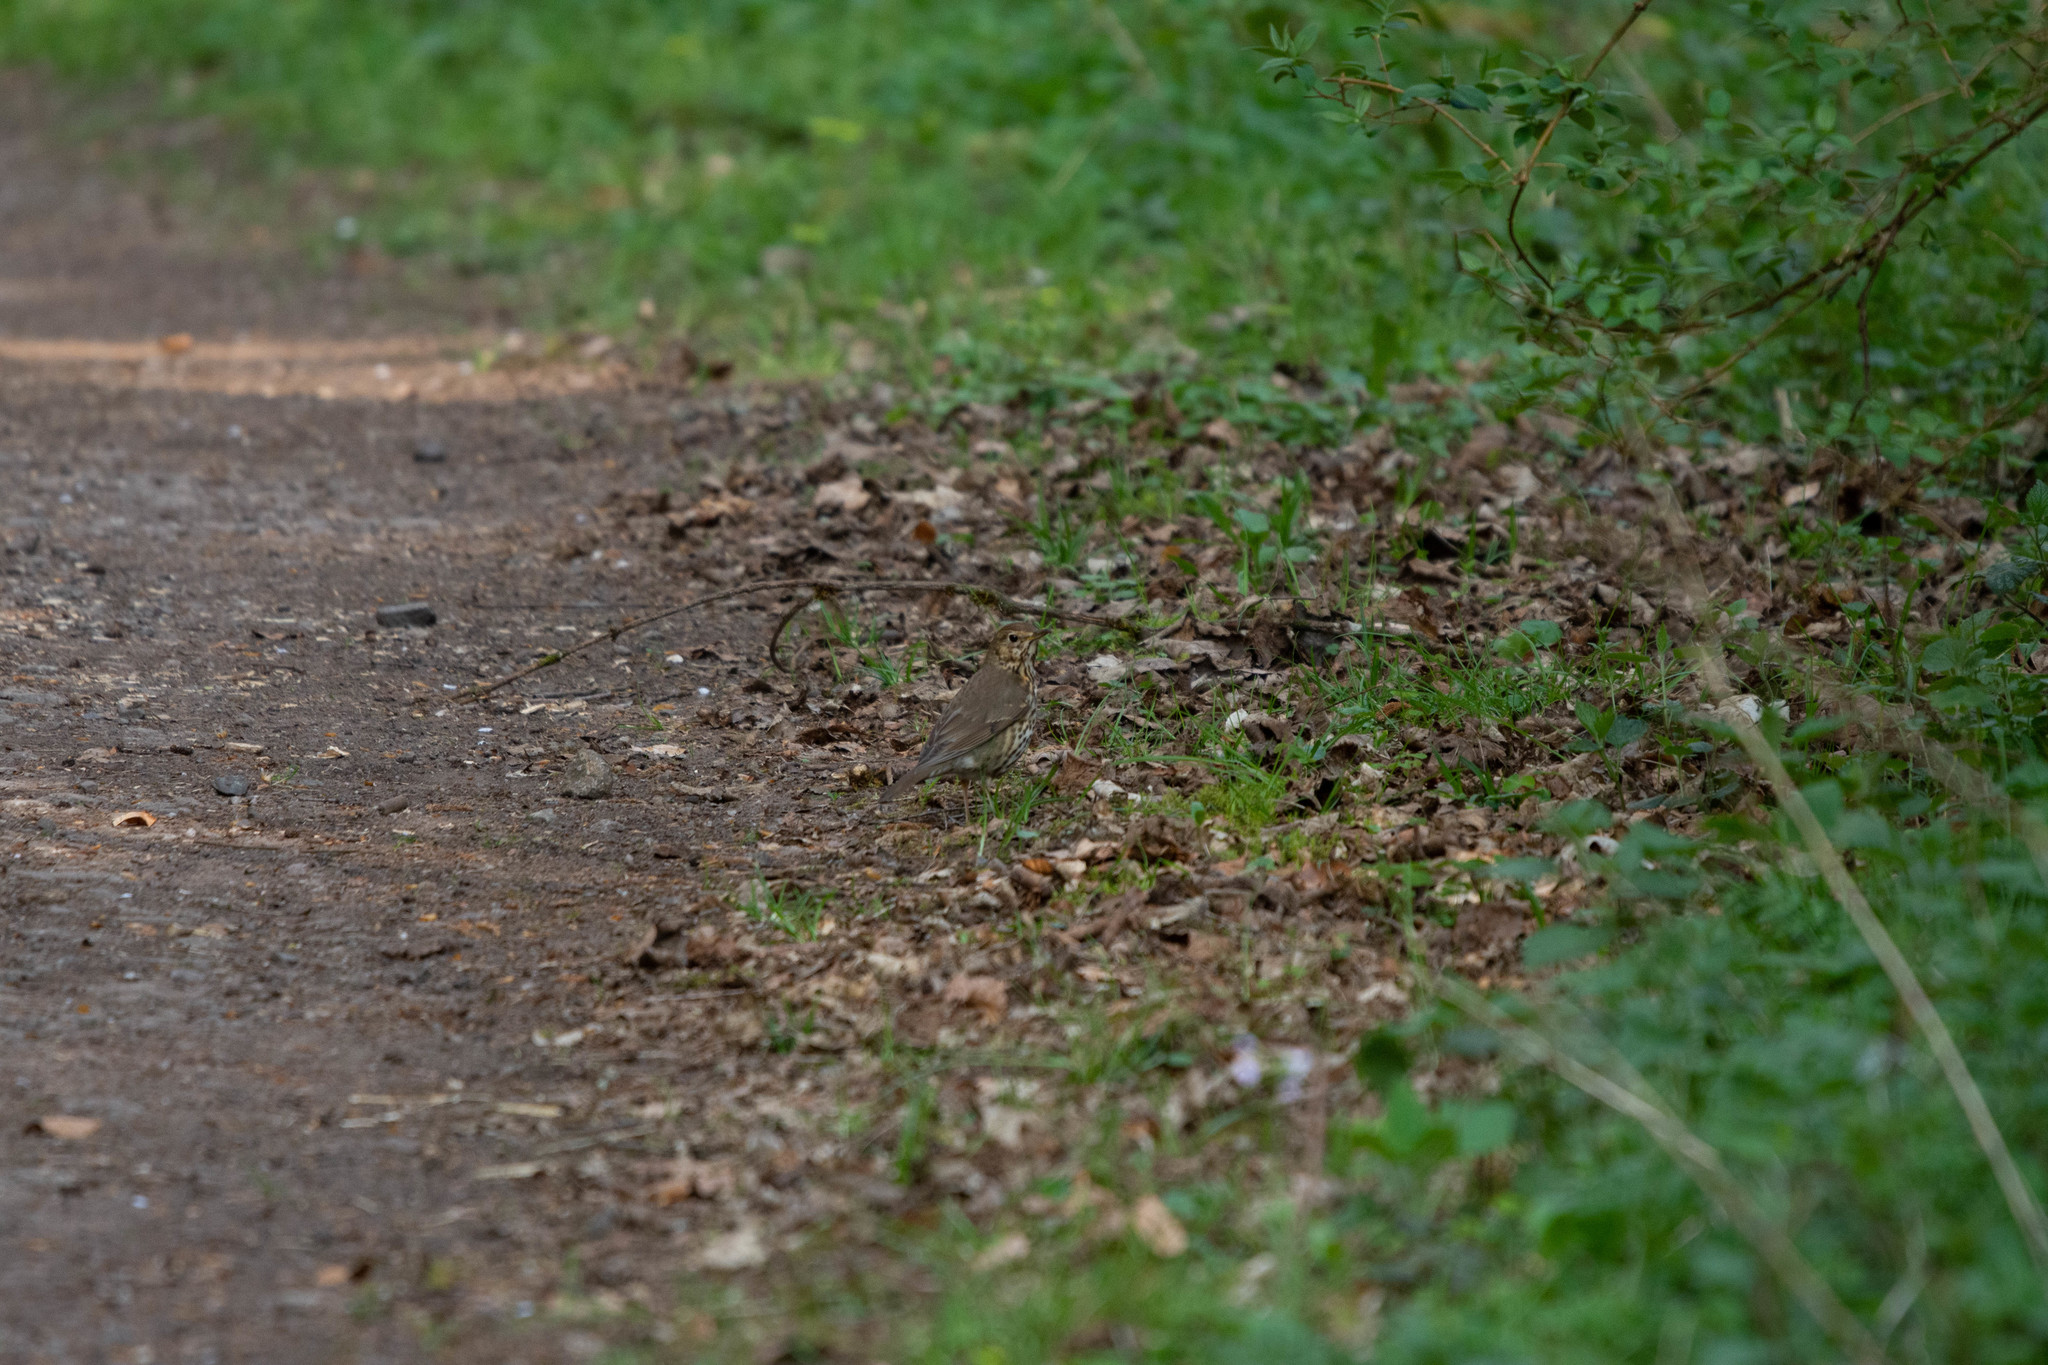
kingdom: Animalia
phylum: Chordata
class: Aves
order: Passeriformes
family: Turdidae
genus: Turdus
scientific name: Turdus philomelos
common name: Song thrush
